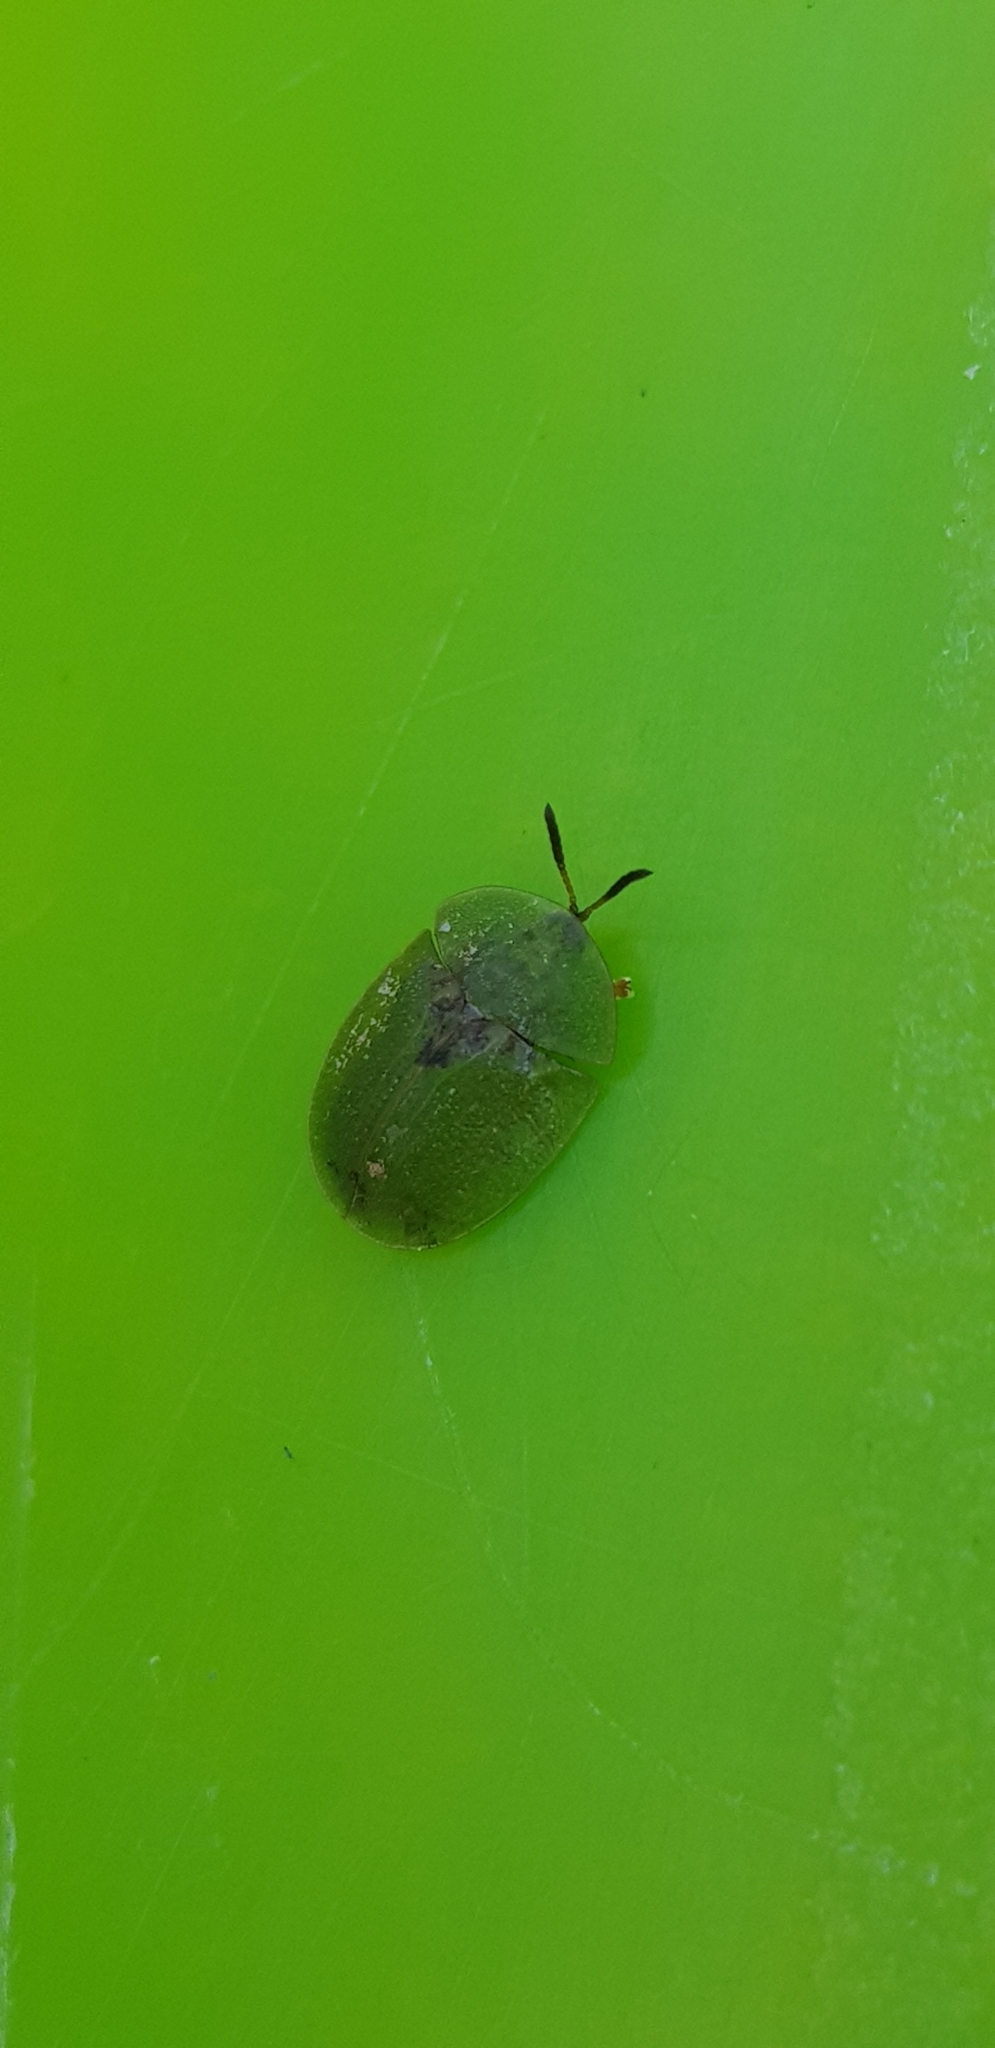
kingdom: Animalia
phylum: Arthropoda
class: Insecta
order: Coleoptera
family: Chrysomelidae
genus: Cassida
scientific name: Cassida rubiginosa
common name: Thistle tortoise beetle
